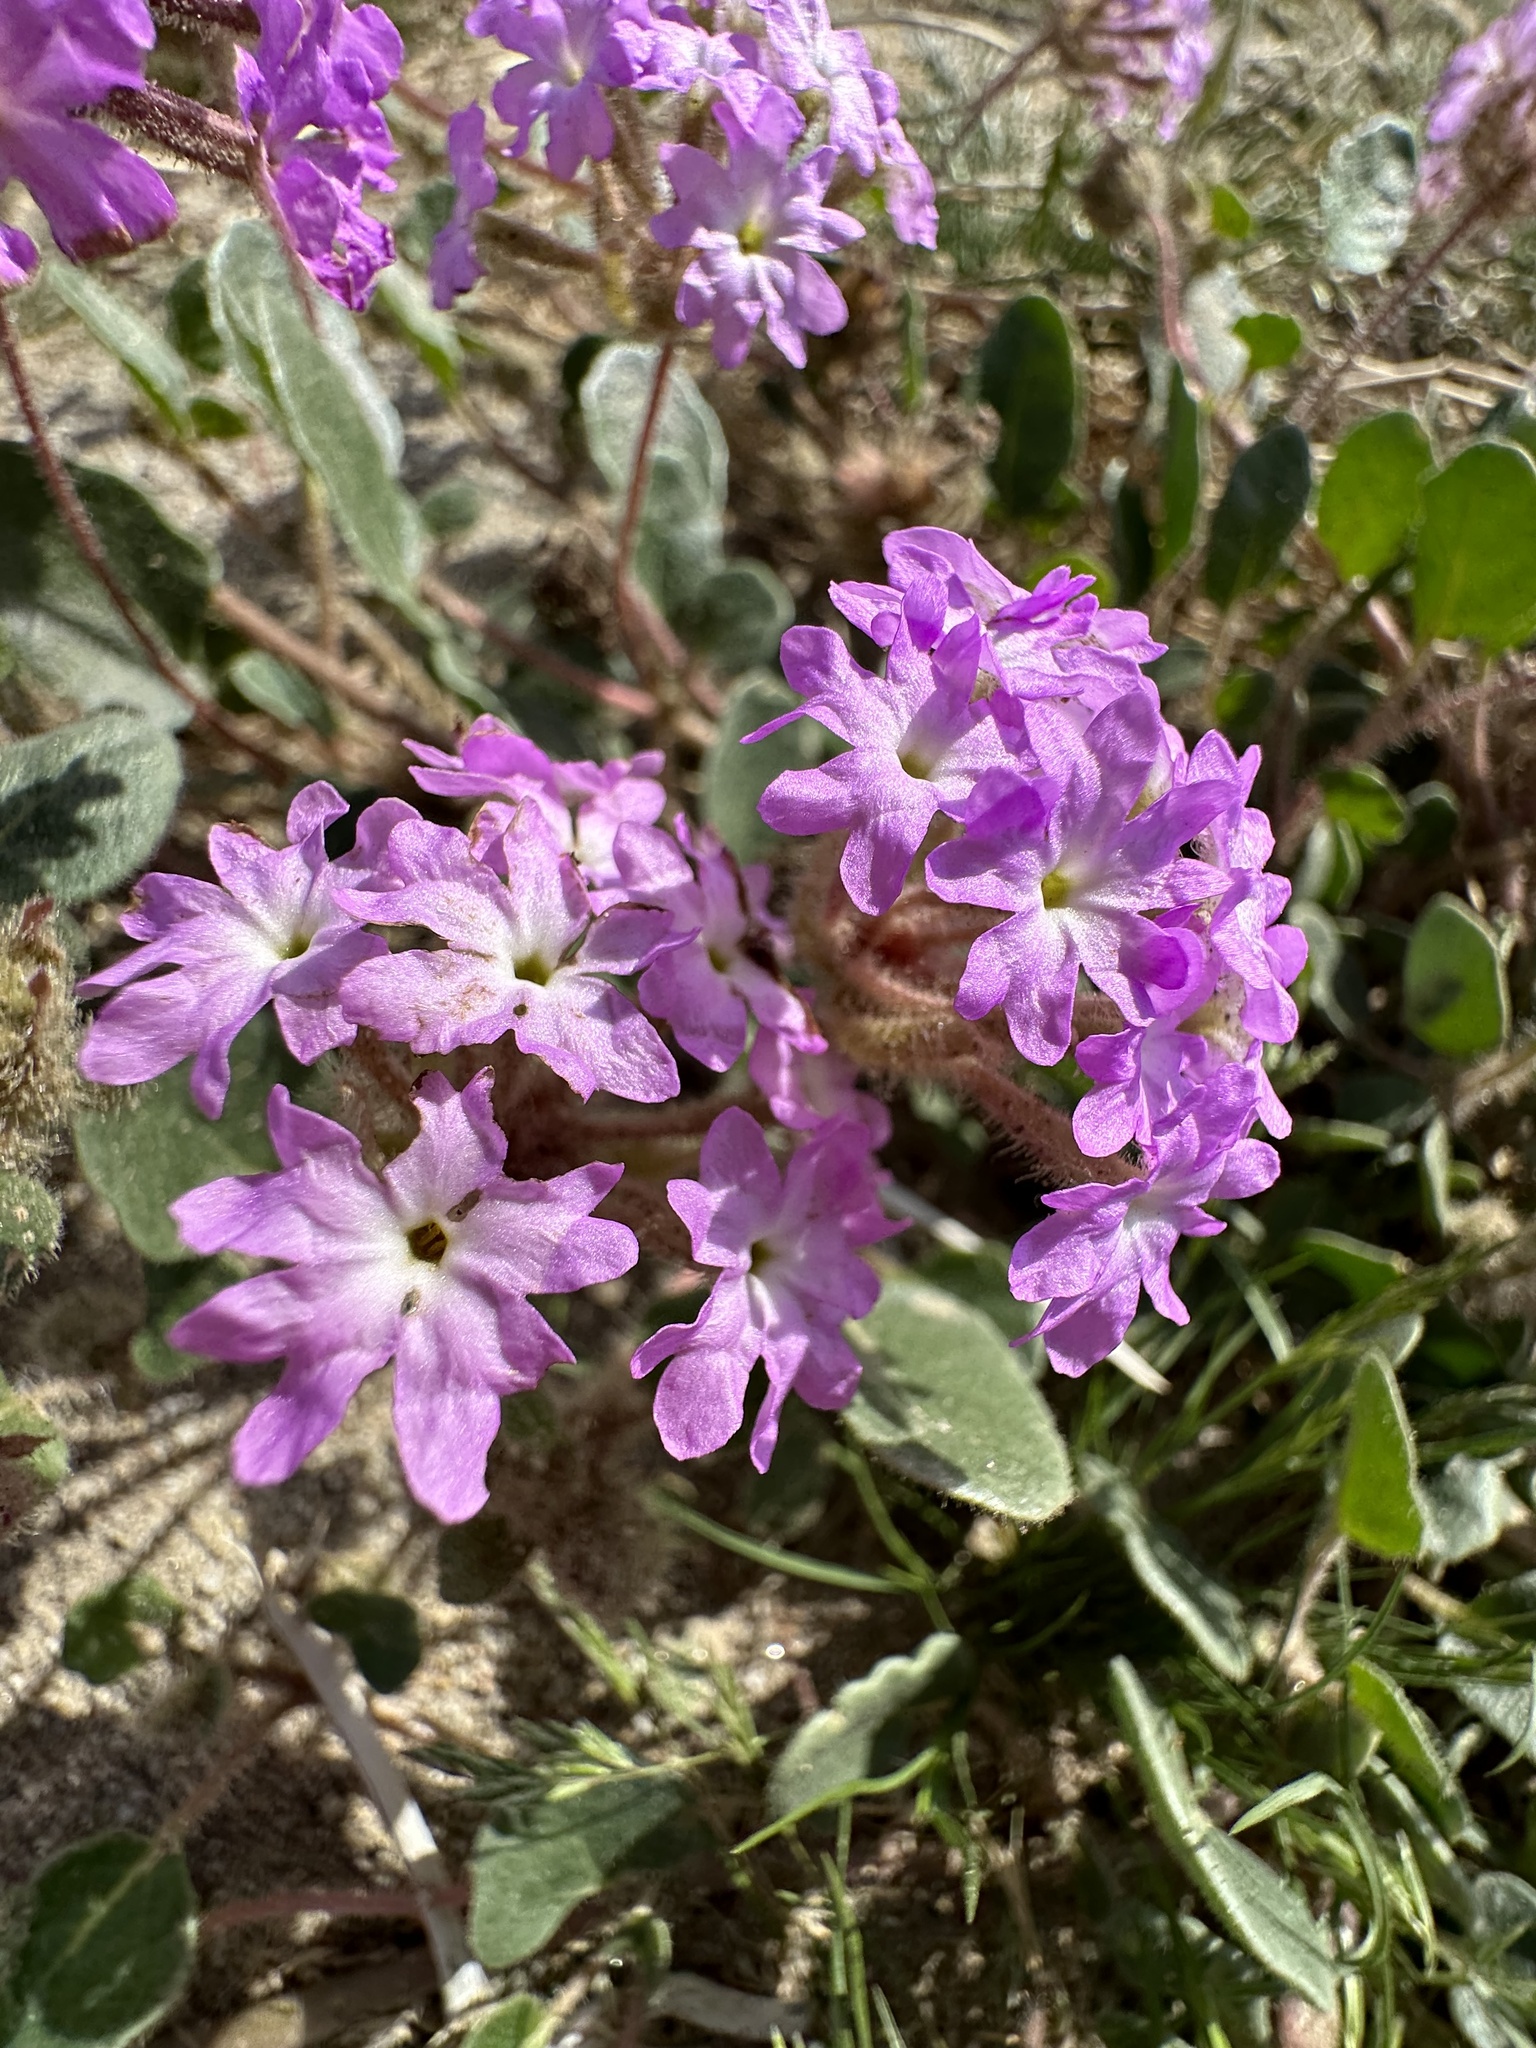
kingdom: Plantae
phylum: Tracheophyta
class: Magnoliopsida
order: Caryophyllales
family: Nyctaginaceae
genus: Abronia
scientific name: Abronia villosa
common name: Desert sand-verbena
